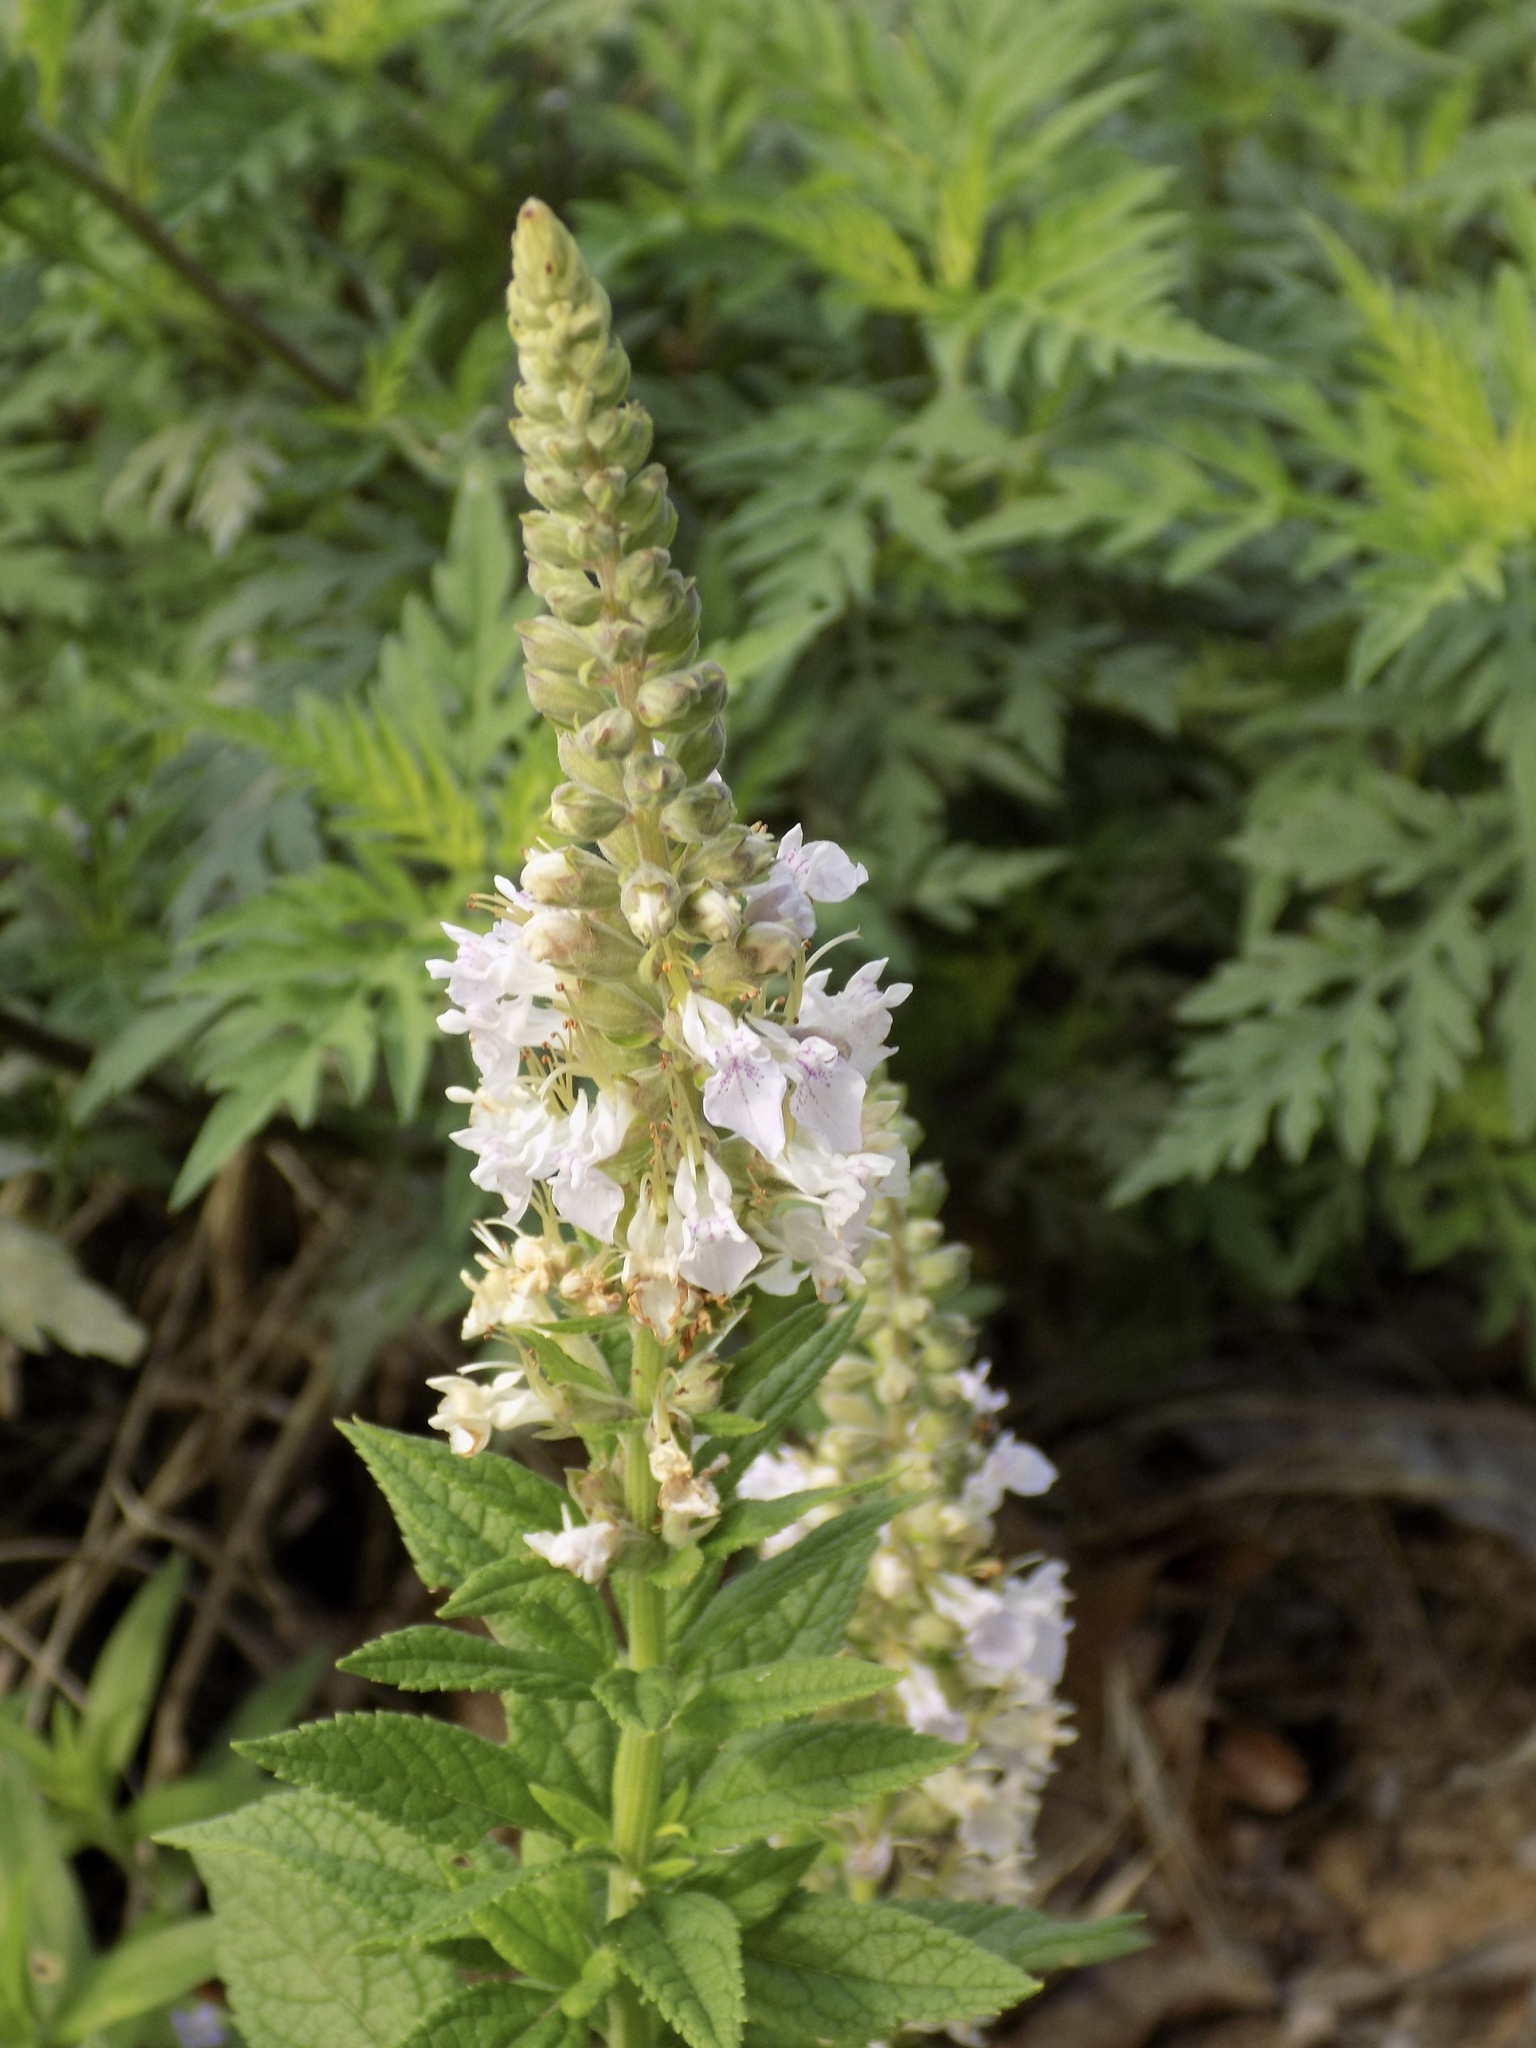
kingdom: Plantae
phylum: Tracheophyta
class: Magnoliopsida
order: Lamiales
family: Lamiaceae
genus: Teucrium
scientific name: Teucrium canadense
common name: American germander
